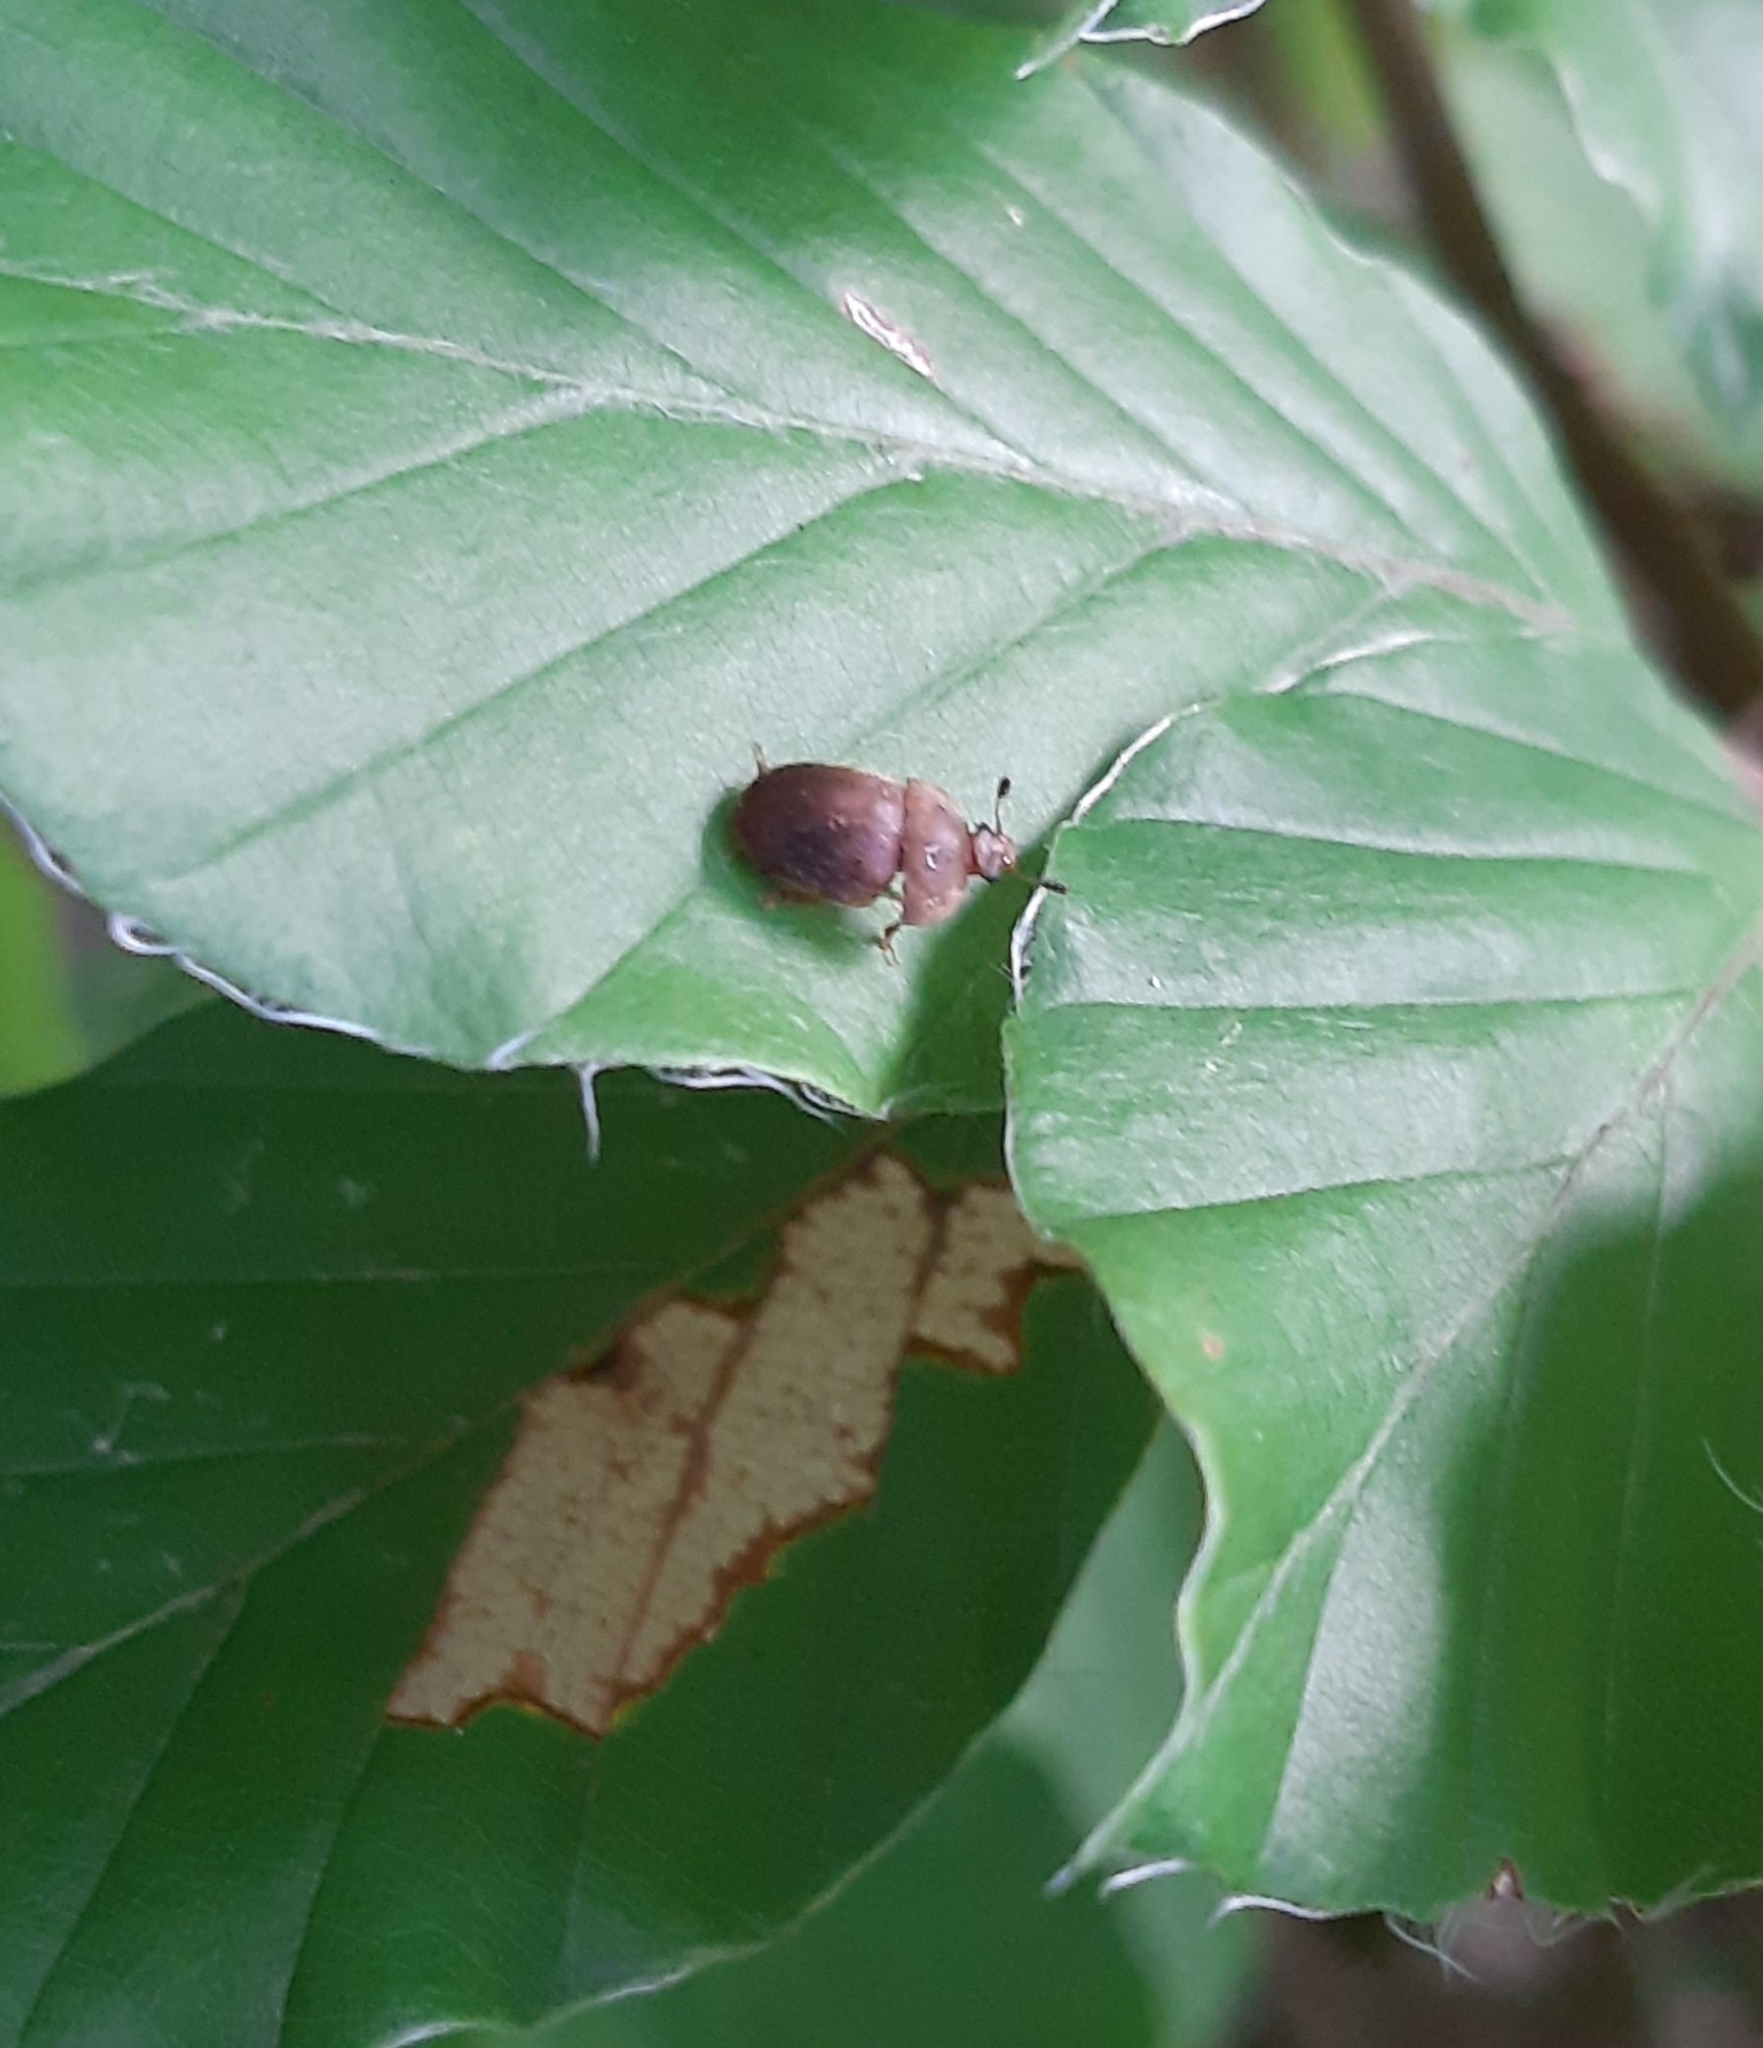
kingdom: Animalia
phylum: Arthropoda
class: Insecta
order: Coleoptera
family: Nitidulidae
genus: Cychramus
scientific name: Cychramus luteus
